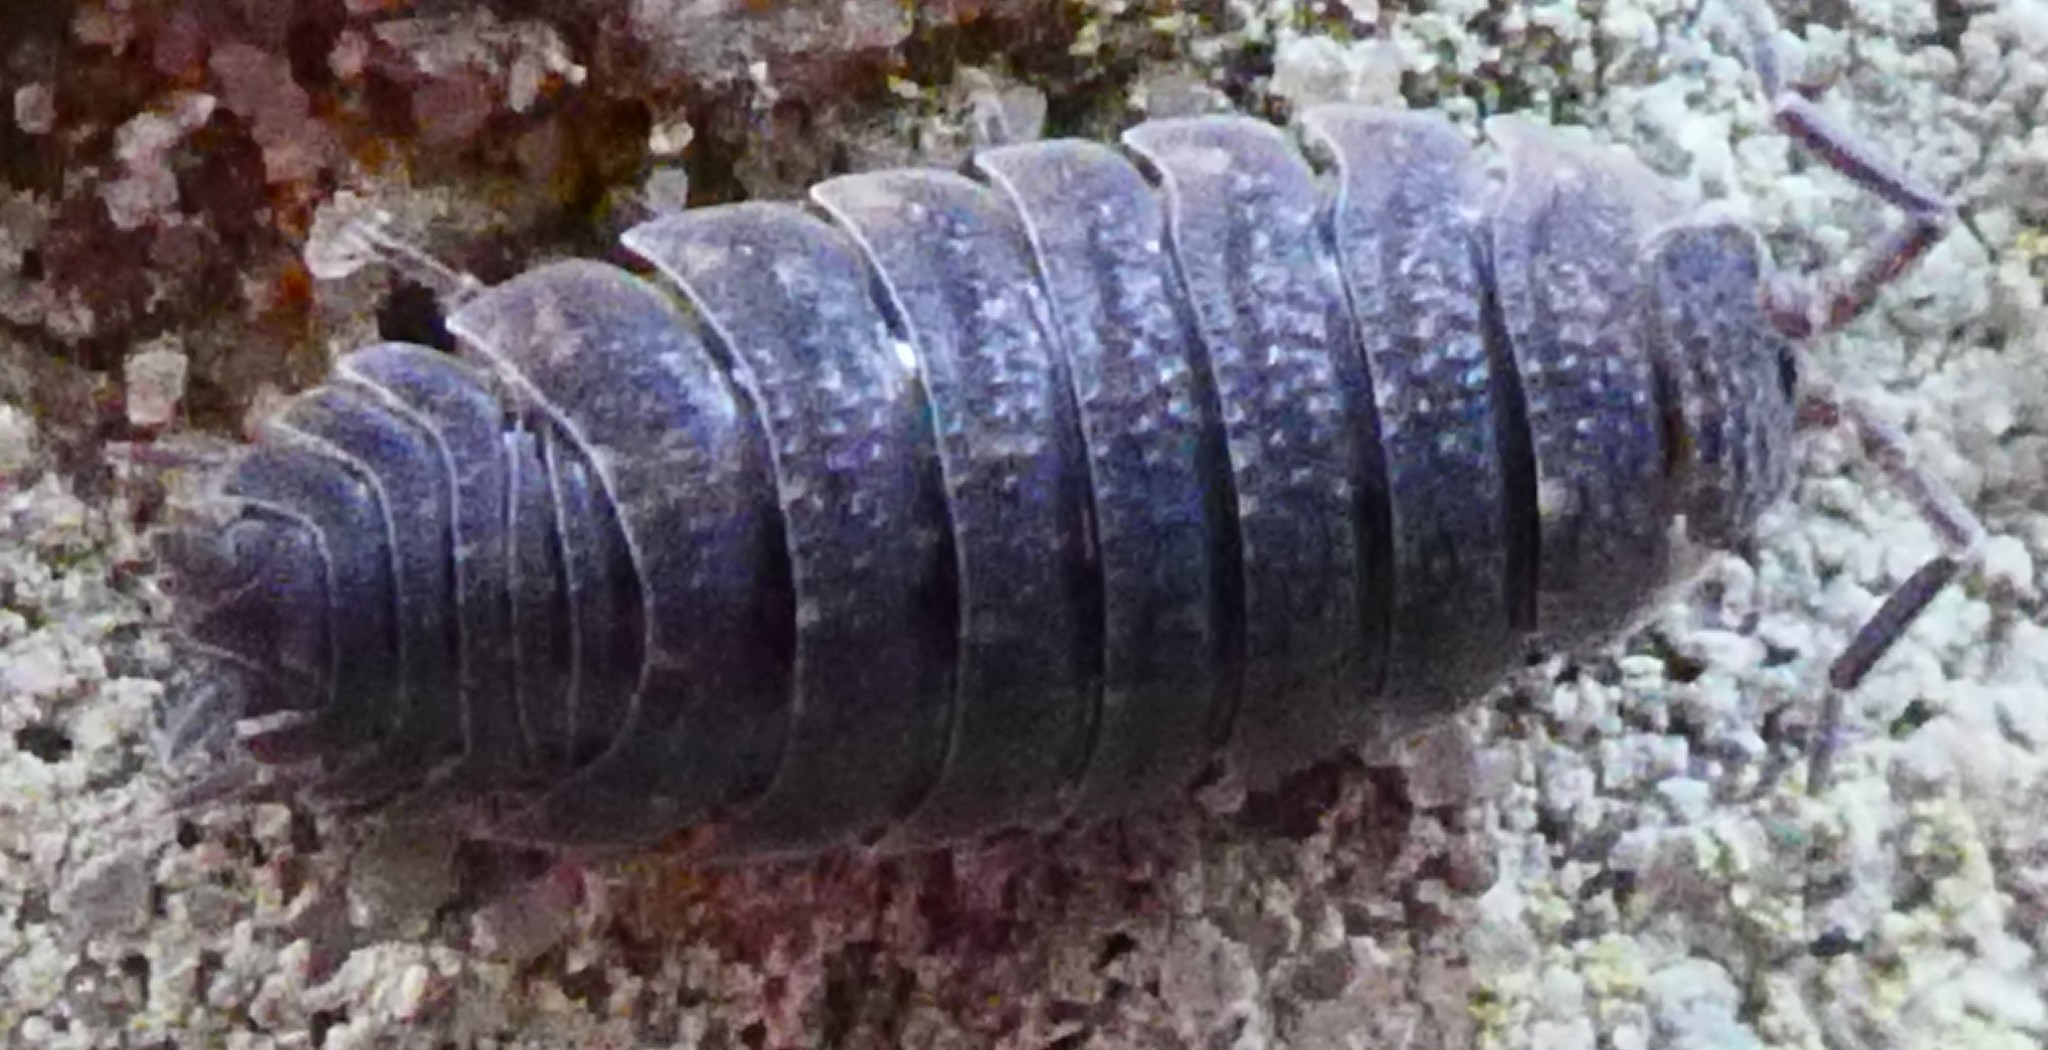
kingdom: Animalia
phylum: Arthropoda
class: Malacostraca
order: Isopoda
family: Porcellionidae
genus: Porcellio
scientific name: Porcellio scaber
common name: Common rough woodlouse
